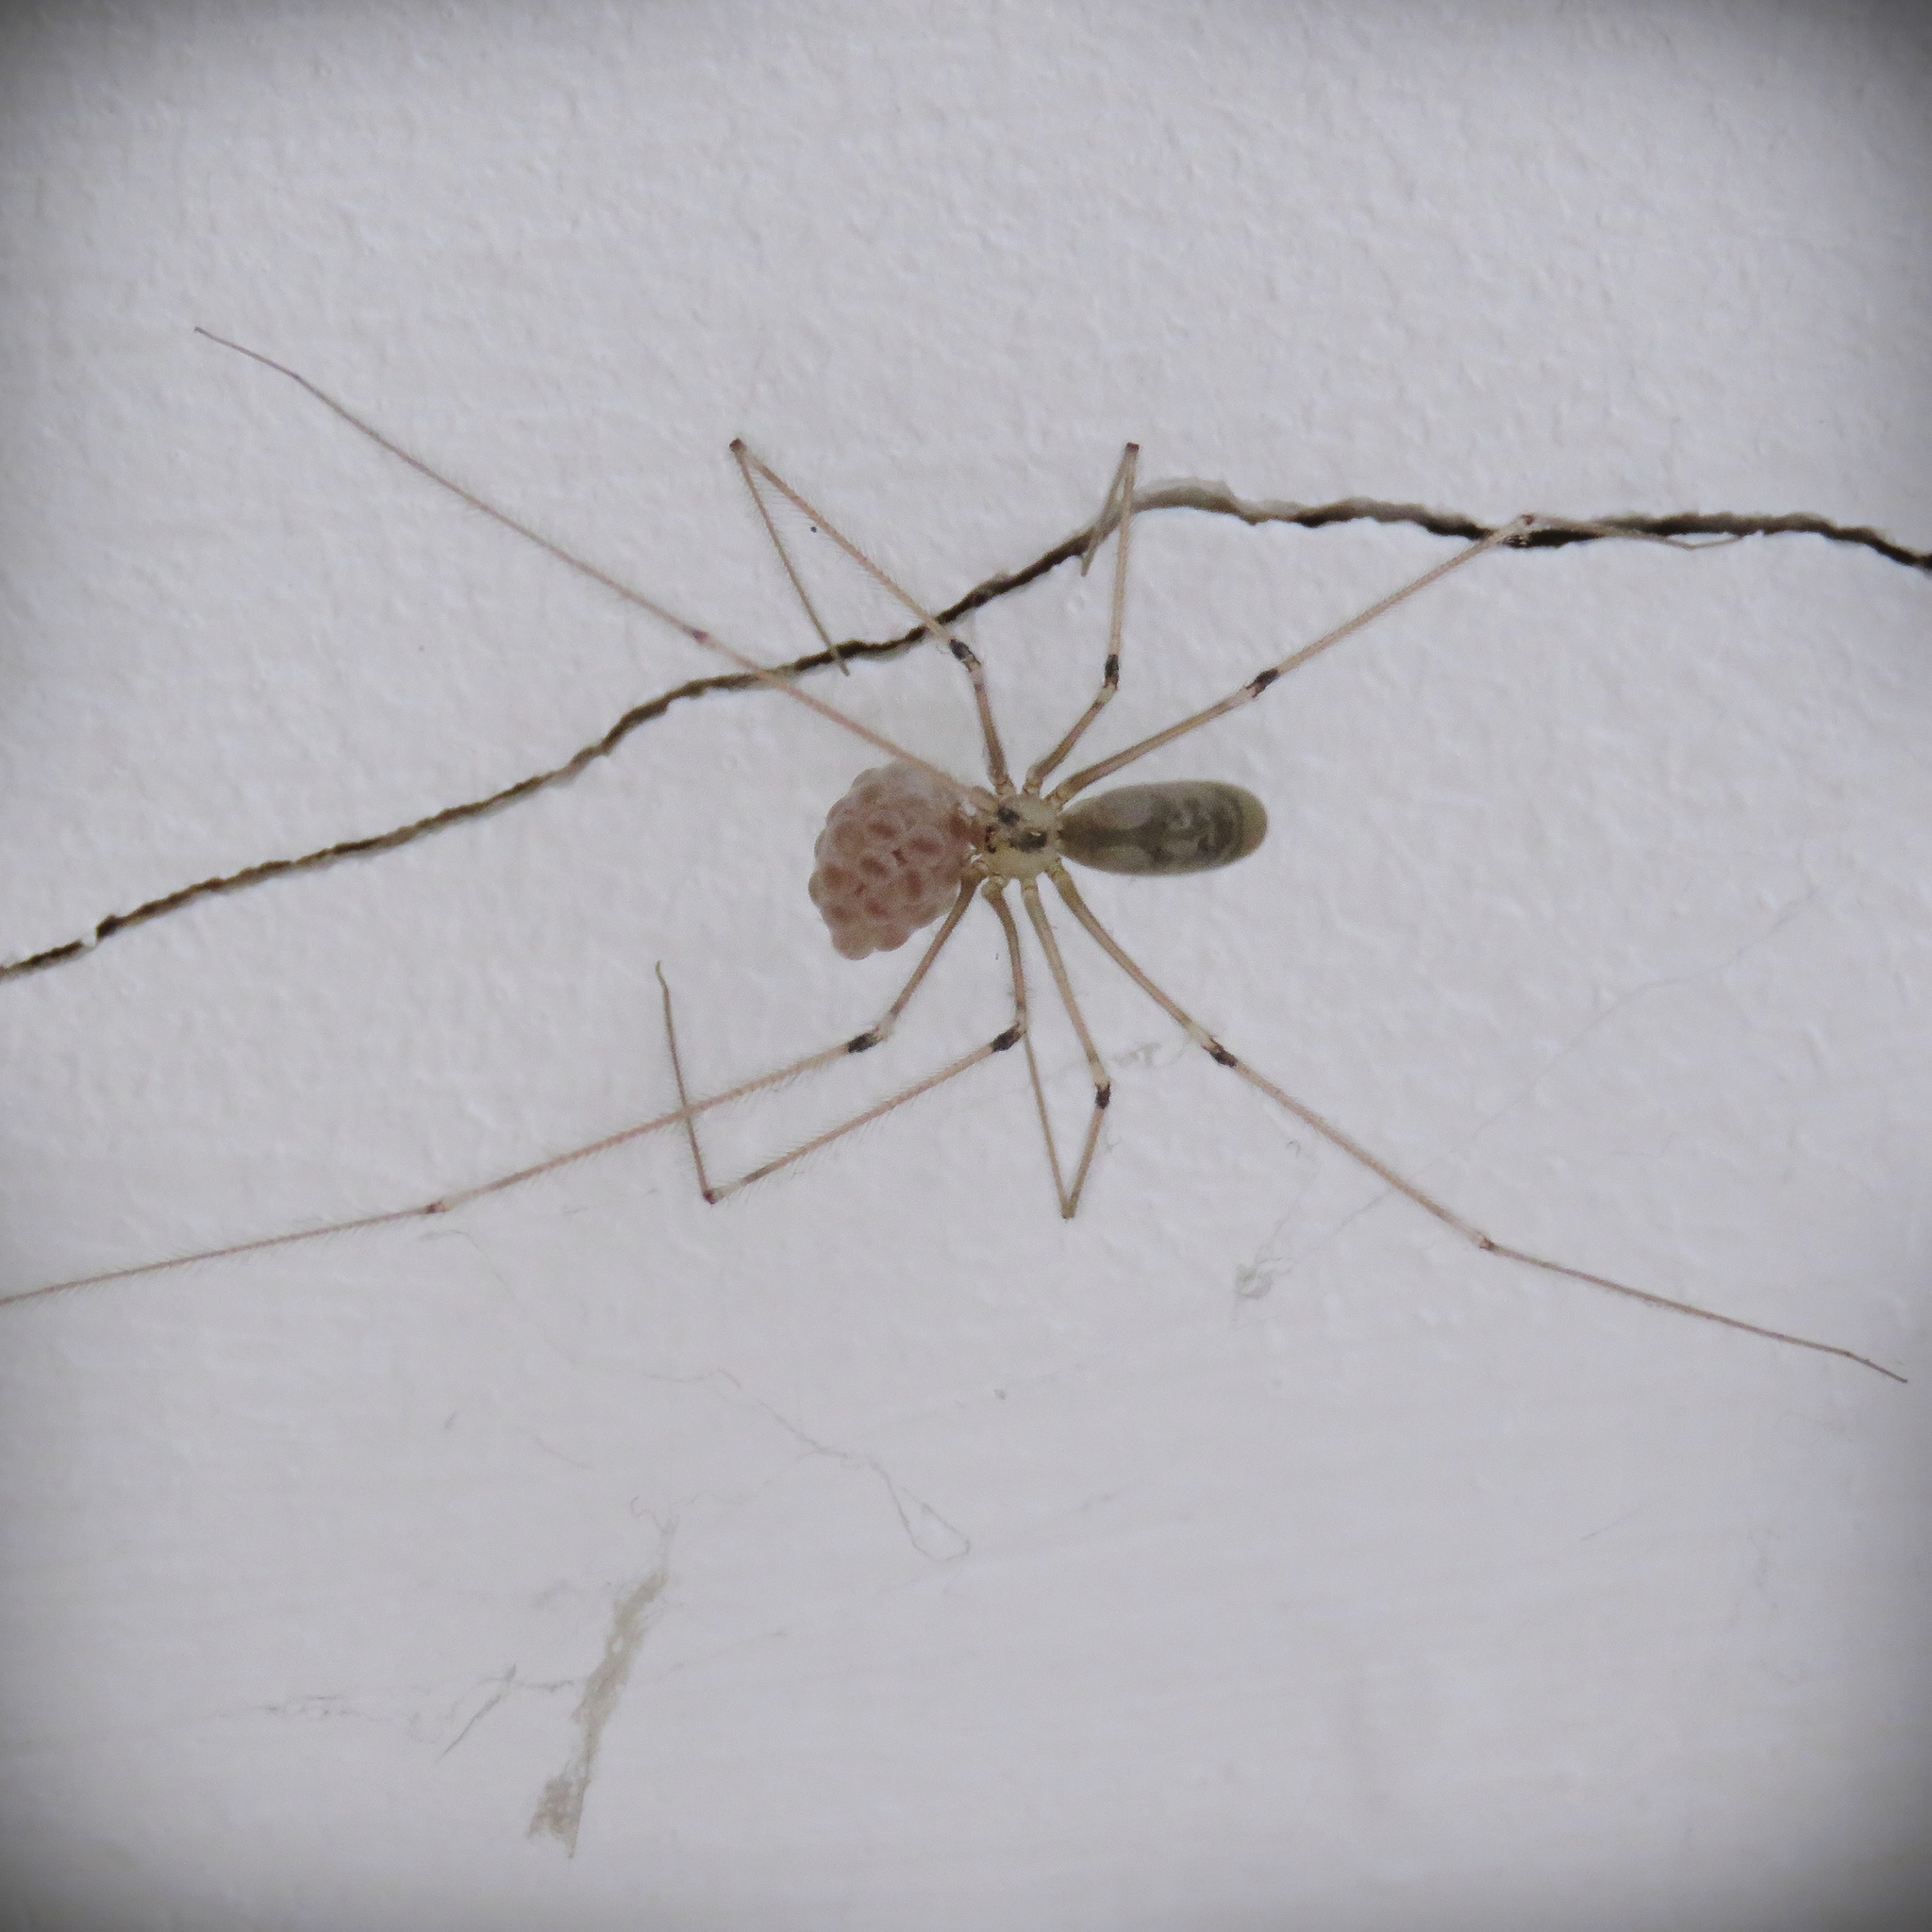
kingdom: Animalia
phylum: Arthropoda
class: Arachnida
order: Araneae
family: Pholcidae
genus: Pholcus
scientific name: Pholcus phalangioides
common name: Longbodied cellar spider
